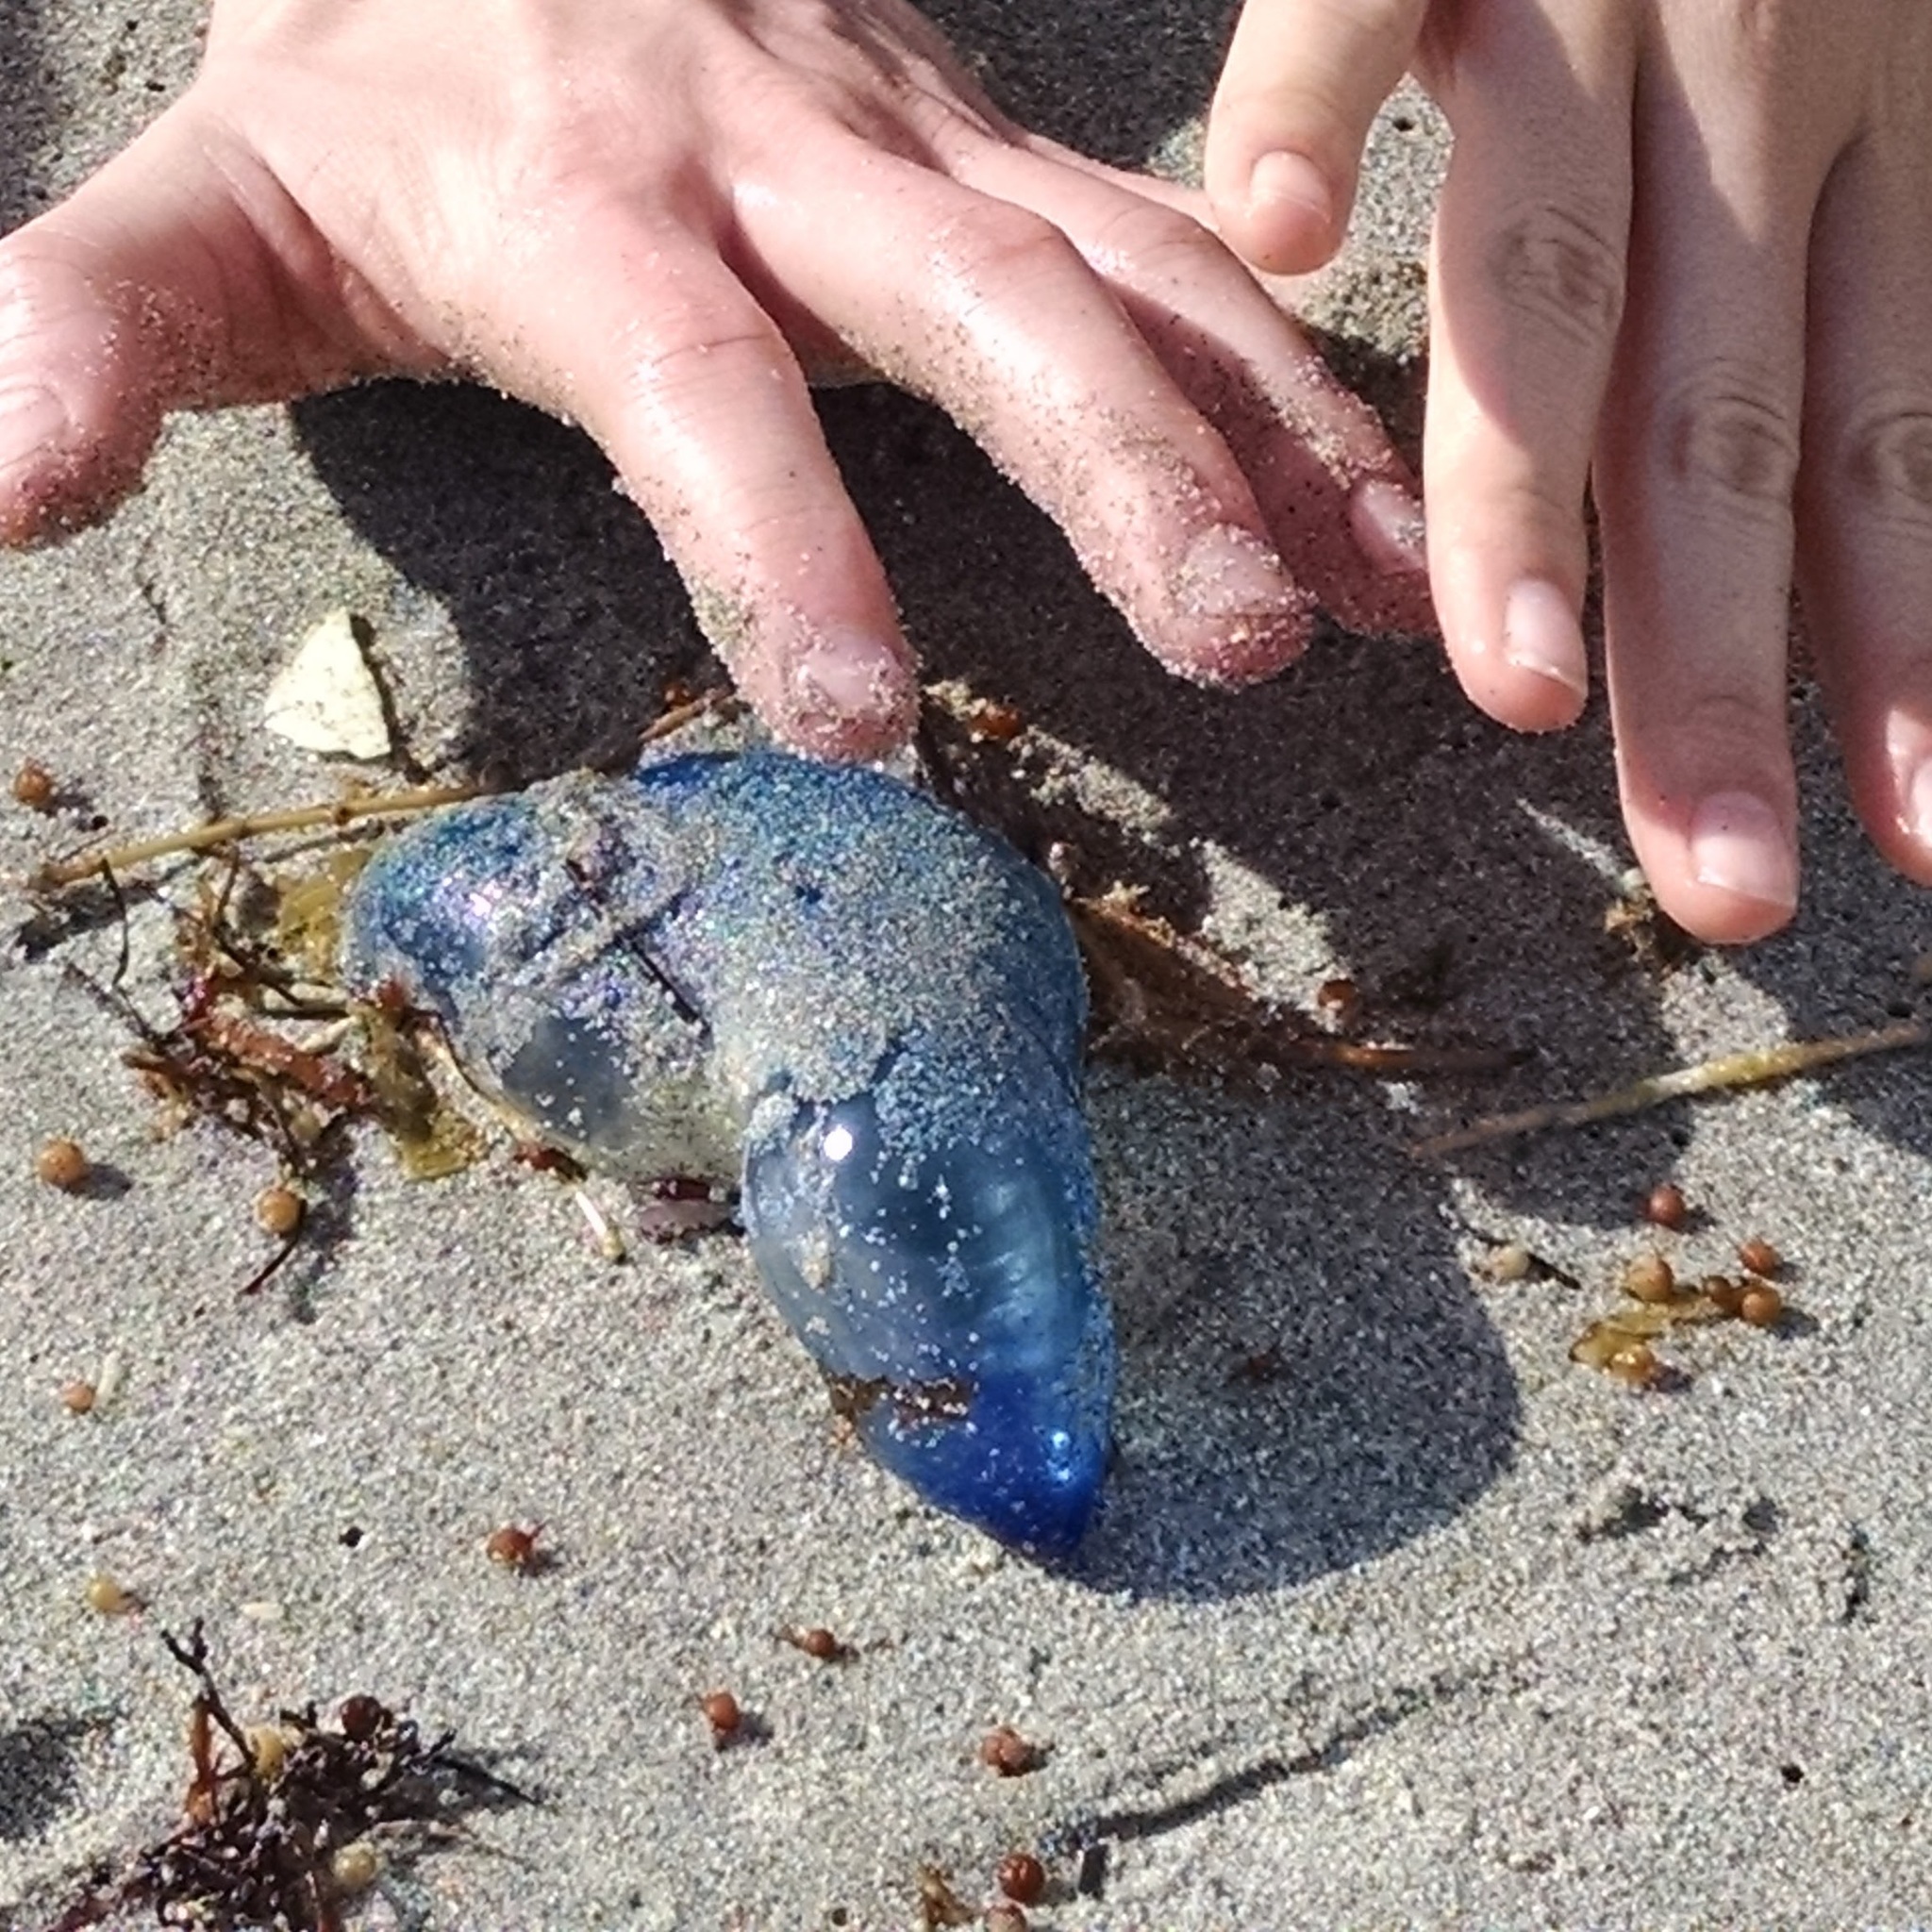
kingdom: Animalia
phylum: Cnidaria
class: Hydrozoa
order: Siphonophorae
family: Physaliidae
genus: Physalia
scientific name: Physalia physalis
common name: Portuguese man-of-war
